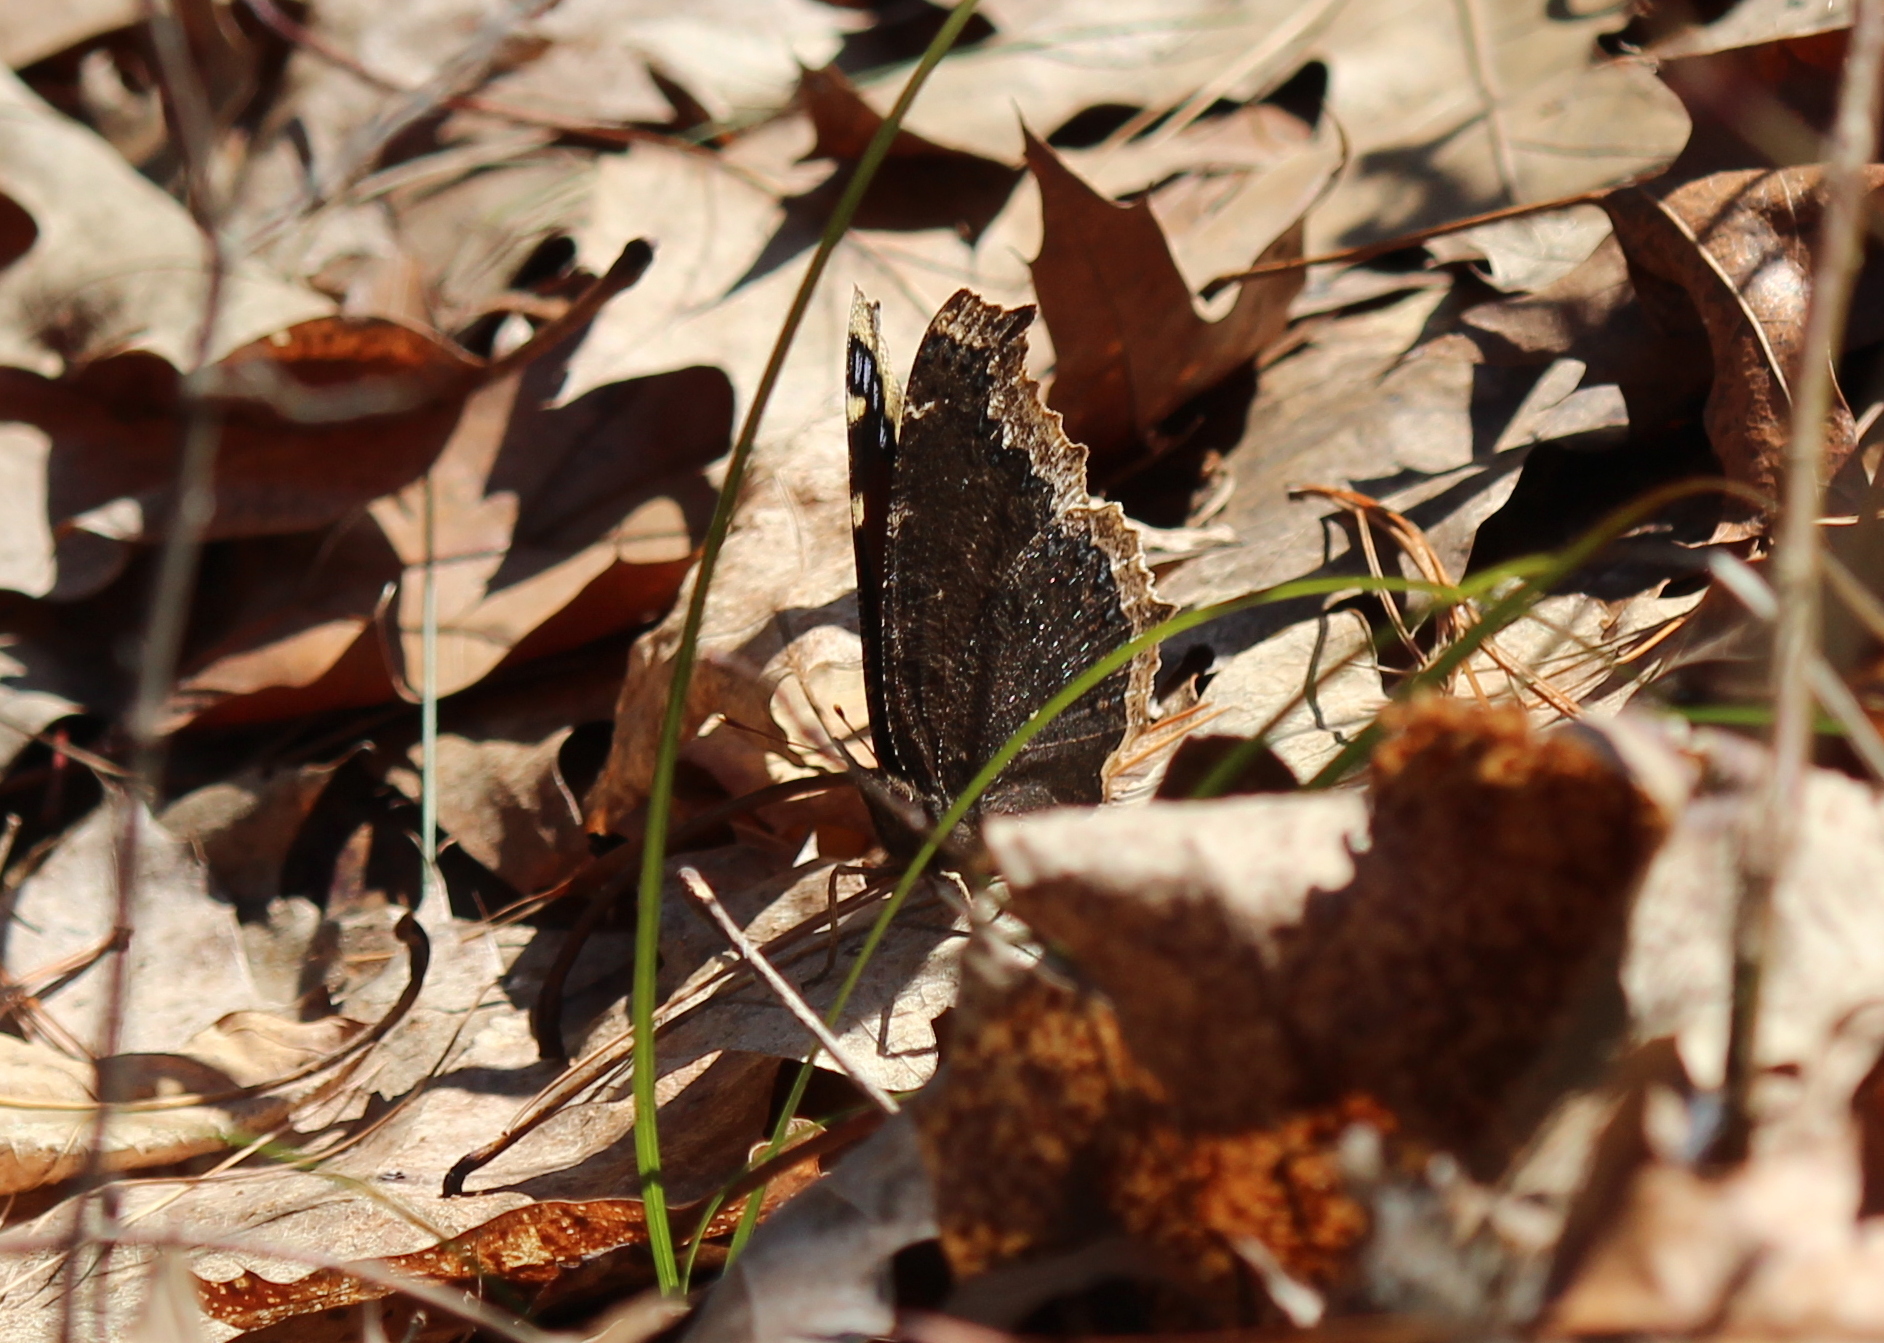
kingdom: Animalia
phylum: Arthropoda
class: Insecta
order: Lepidoptera
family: Nymphalidae
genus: Nymphalis
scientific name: Nymphalis antiopa
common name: Camberwell beauty
